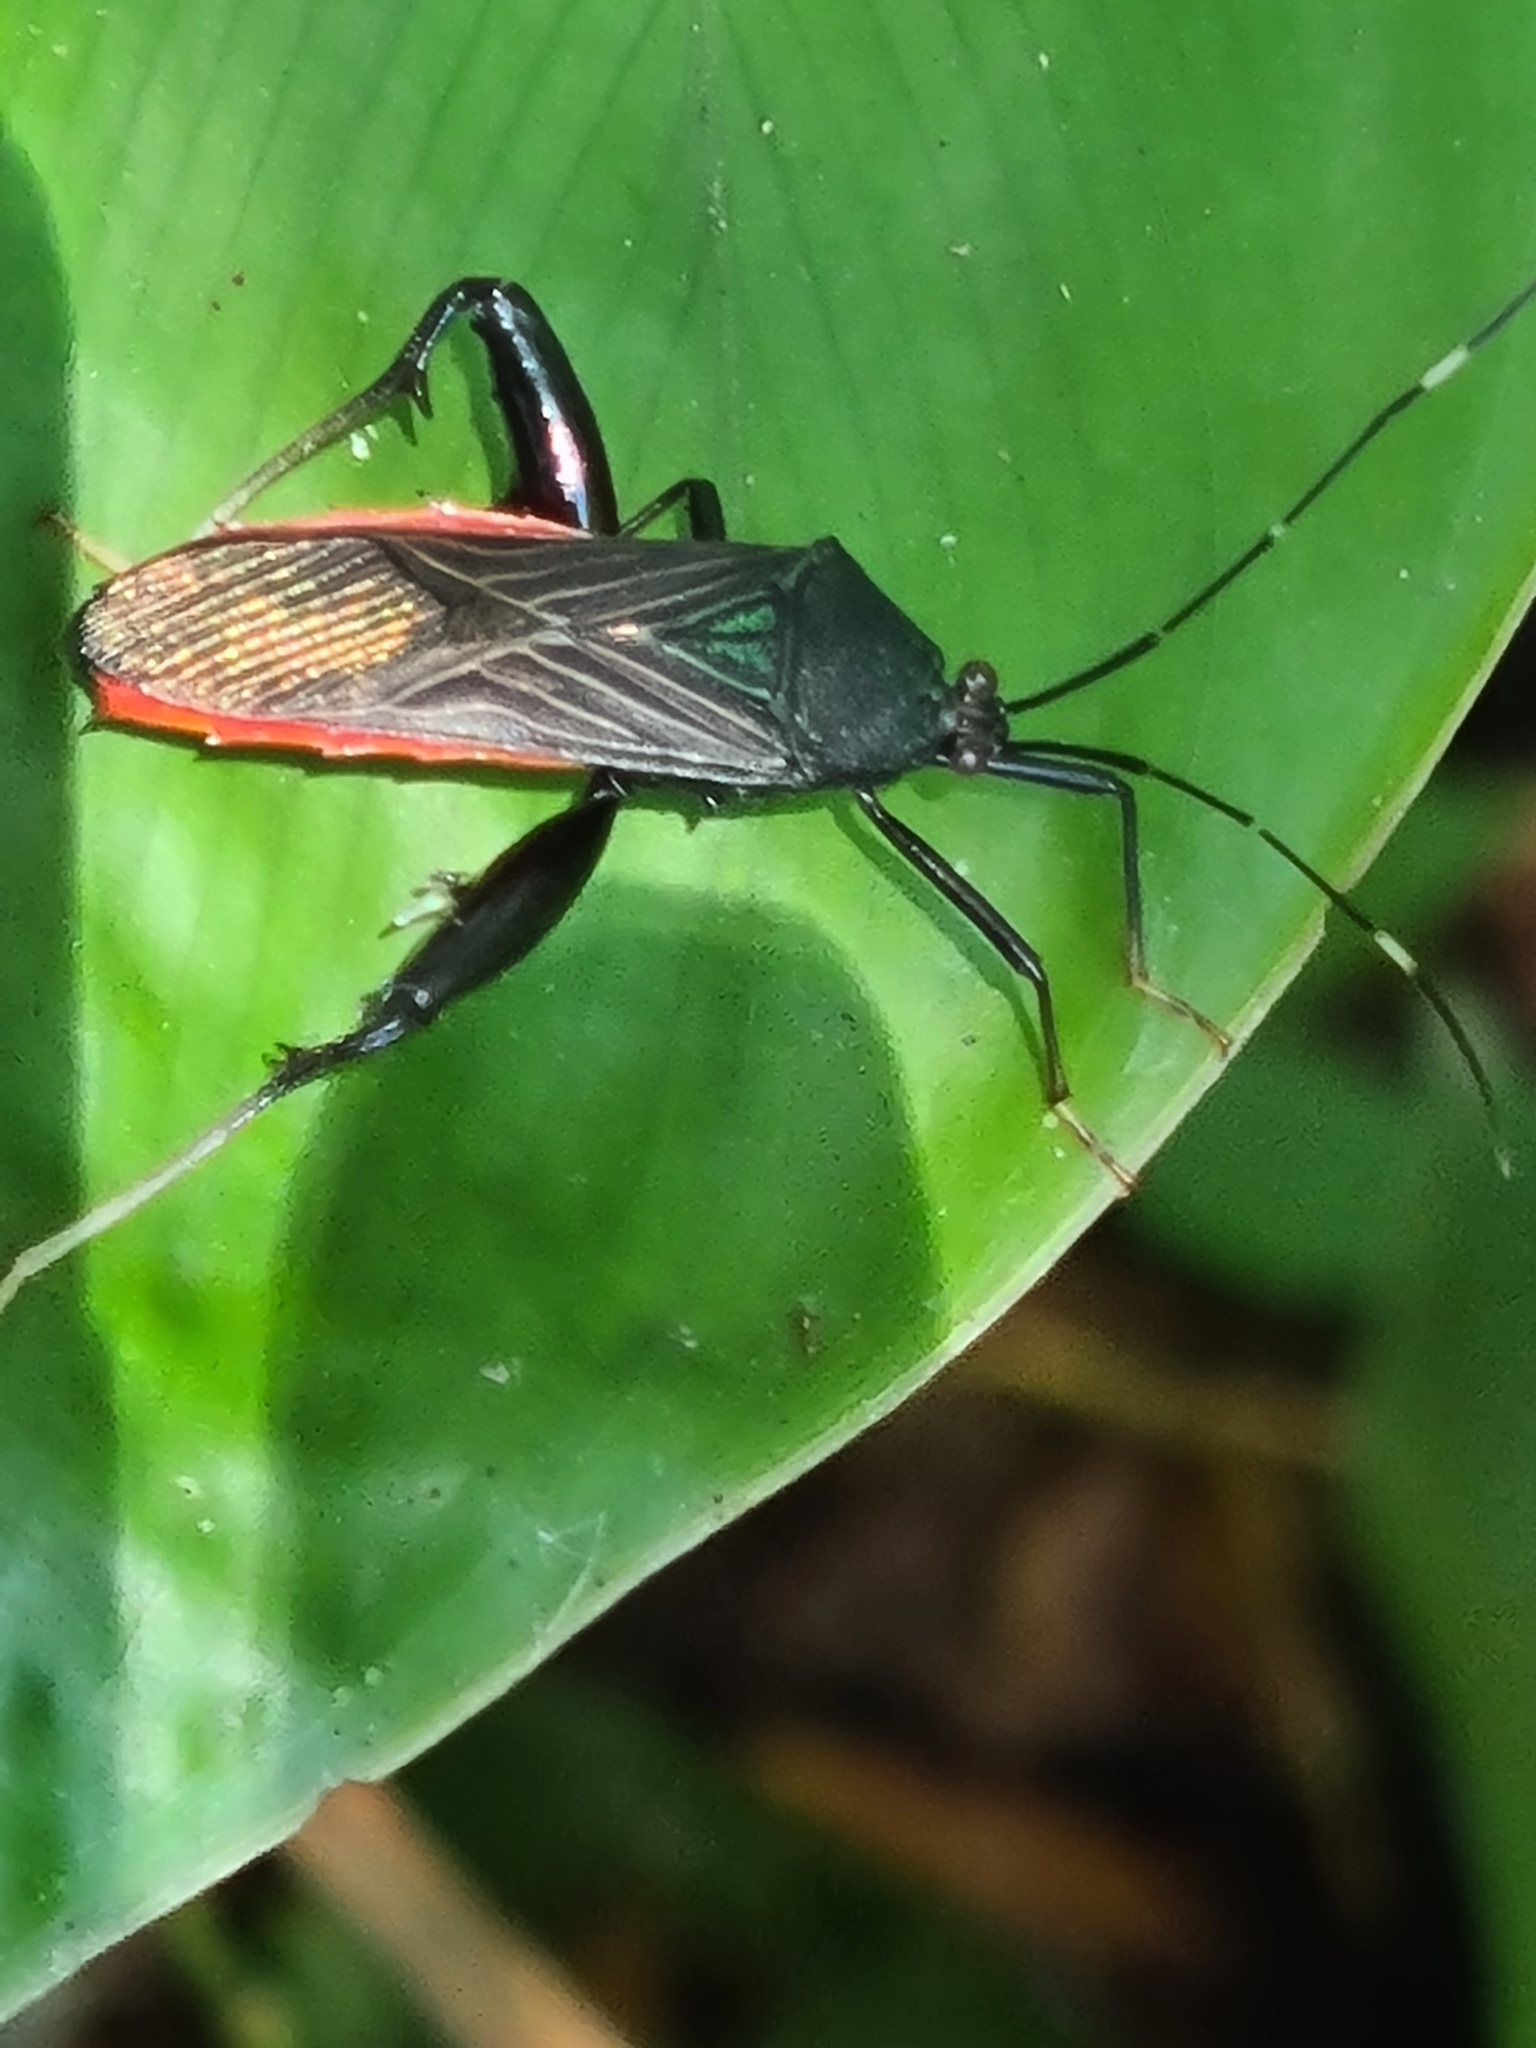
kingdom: Animalia
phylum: Arthropoda
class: Insecta
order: Hemiptera
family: Coreidae
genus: Nematopus
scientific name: Nematopus indus
